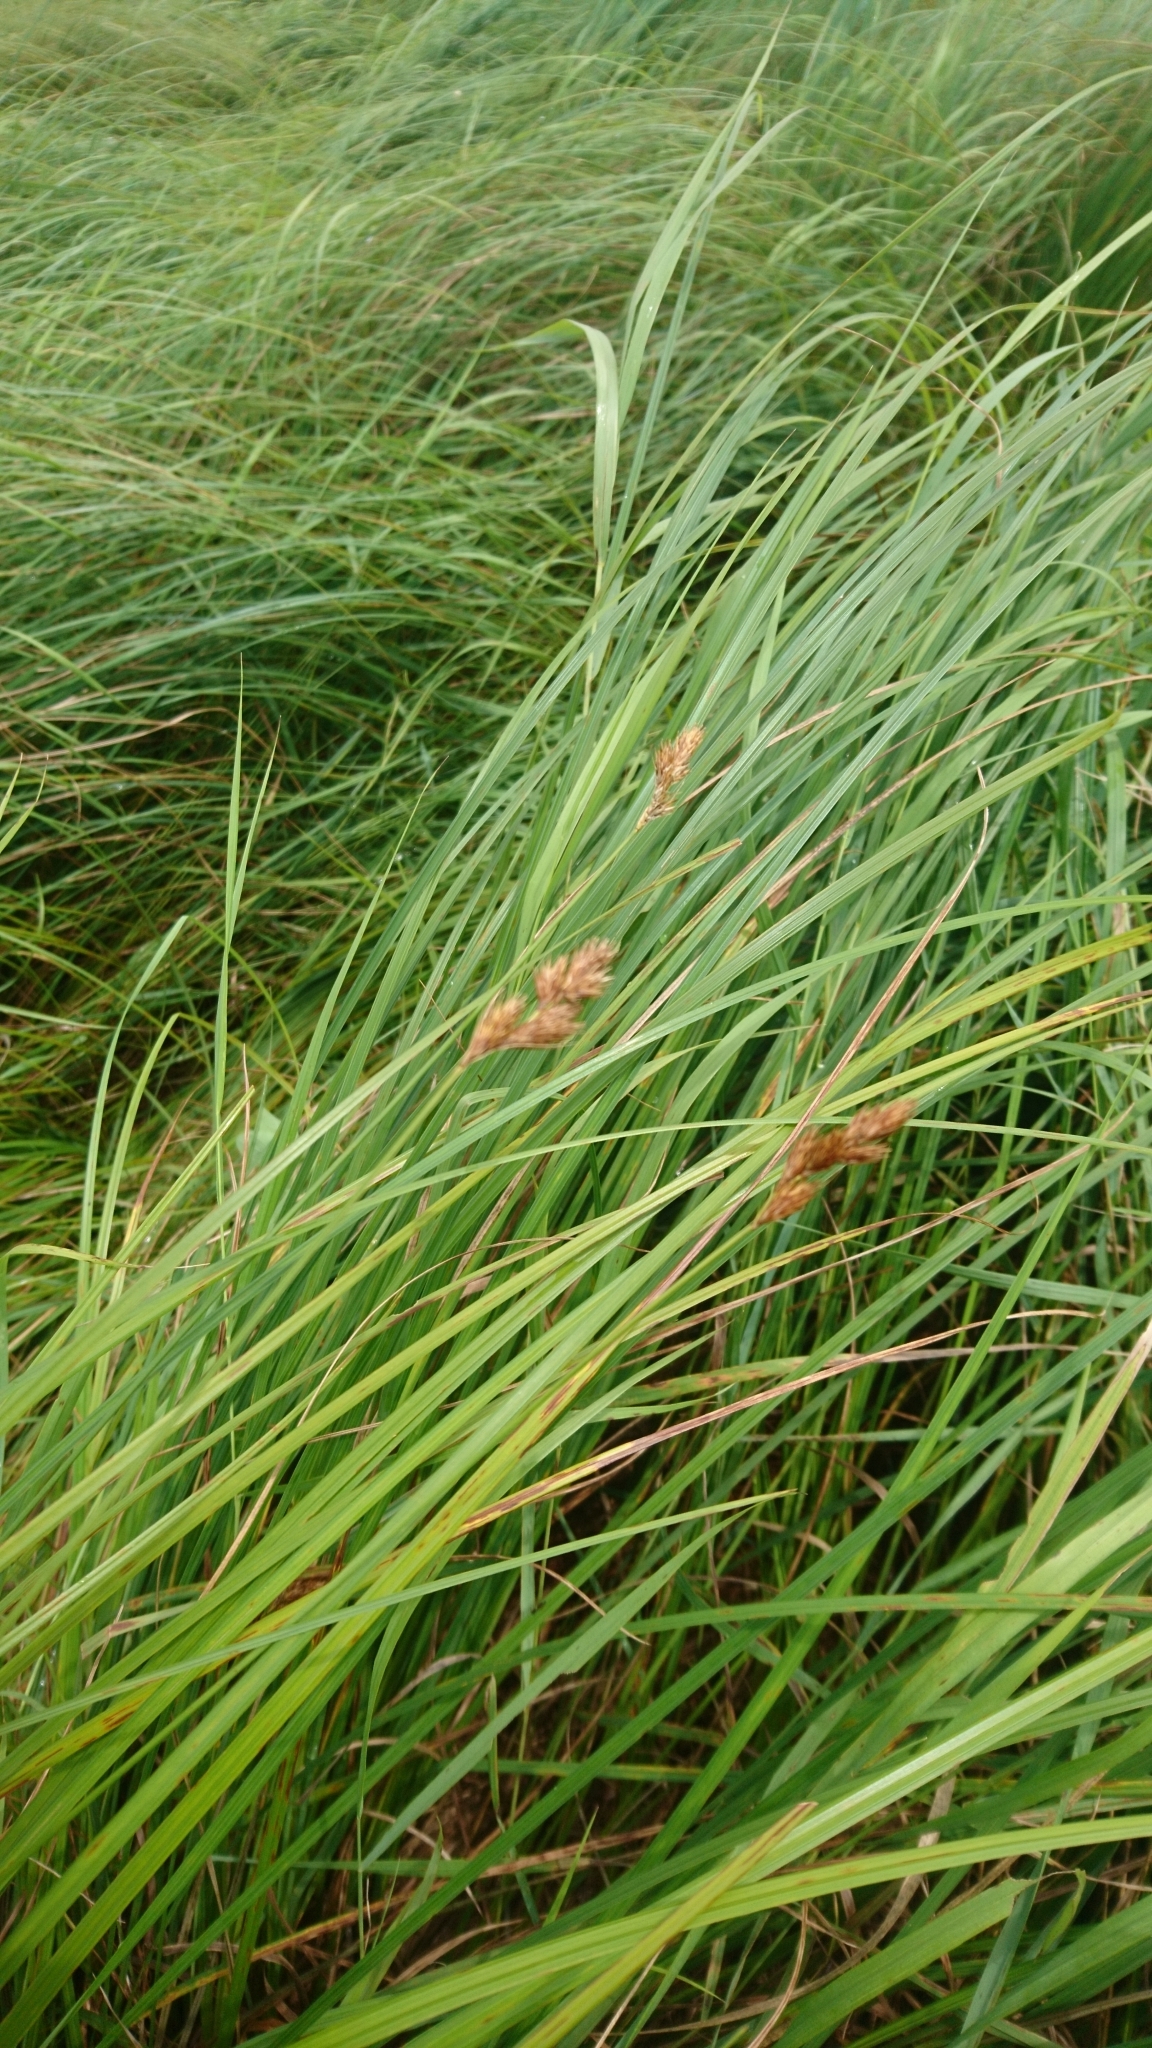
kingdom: Plantae
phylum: Tracheophyta
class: Liliopsida
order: Poales
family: Cyperaceae
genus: Carex
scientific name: Carex scoparia
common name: Broom sedge
